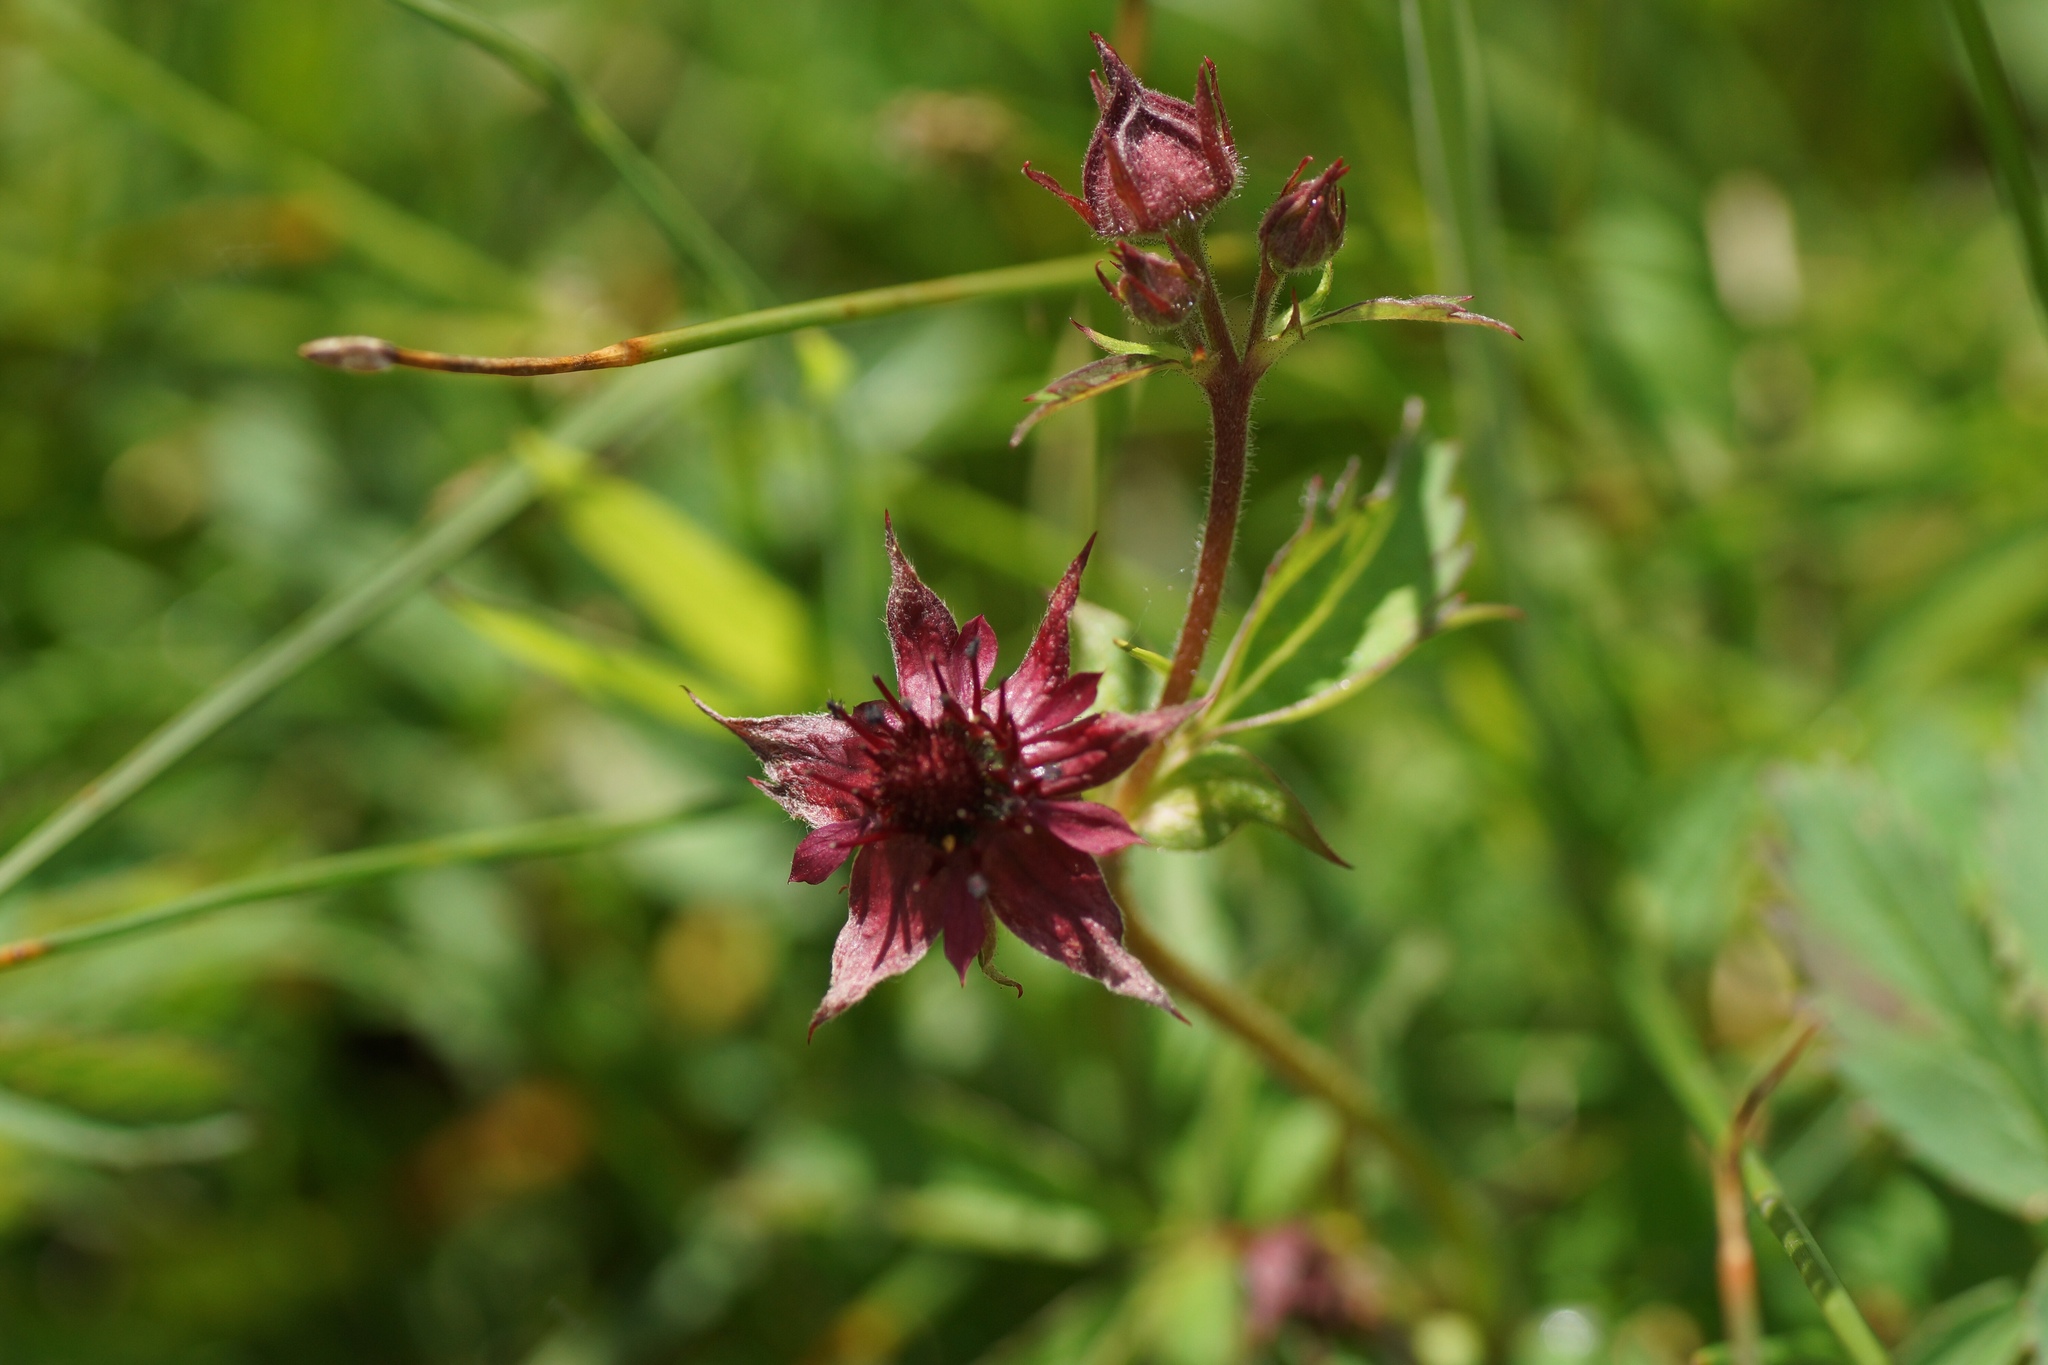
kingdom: Plantae
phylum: Tracheophyta
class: Magnoliopsida
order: Rosales
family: Rosaceae
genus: Comarum
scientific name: Comarum palustre
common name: Marsh cinquefoil
